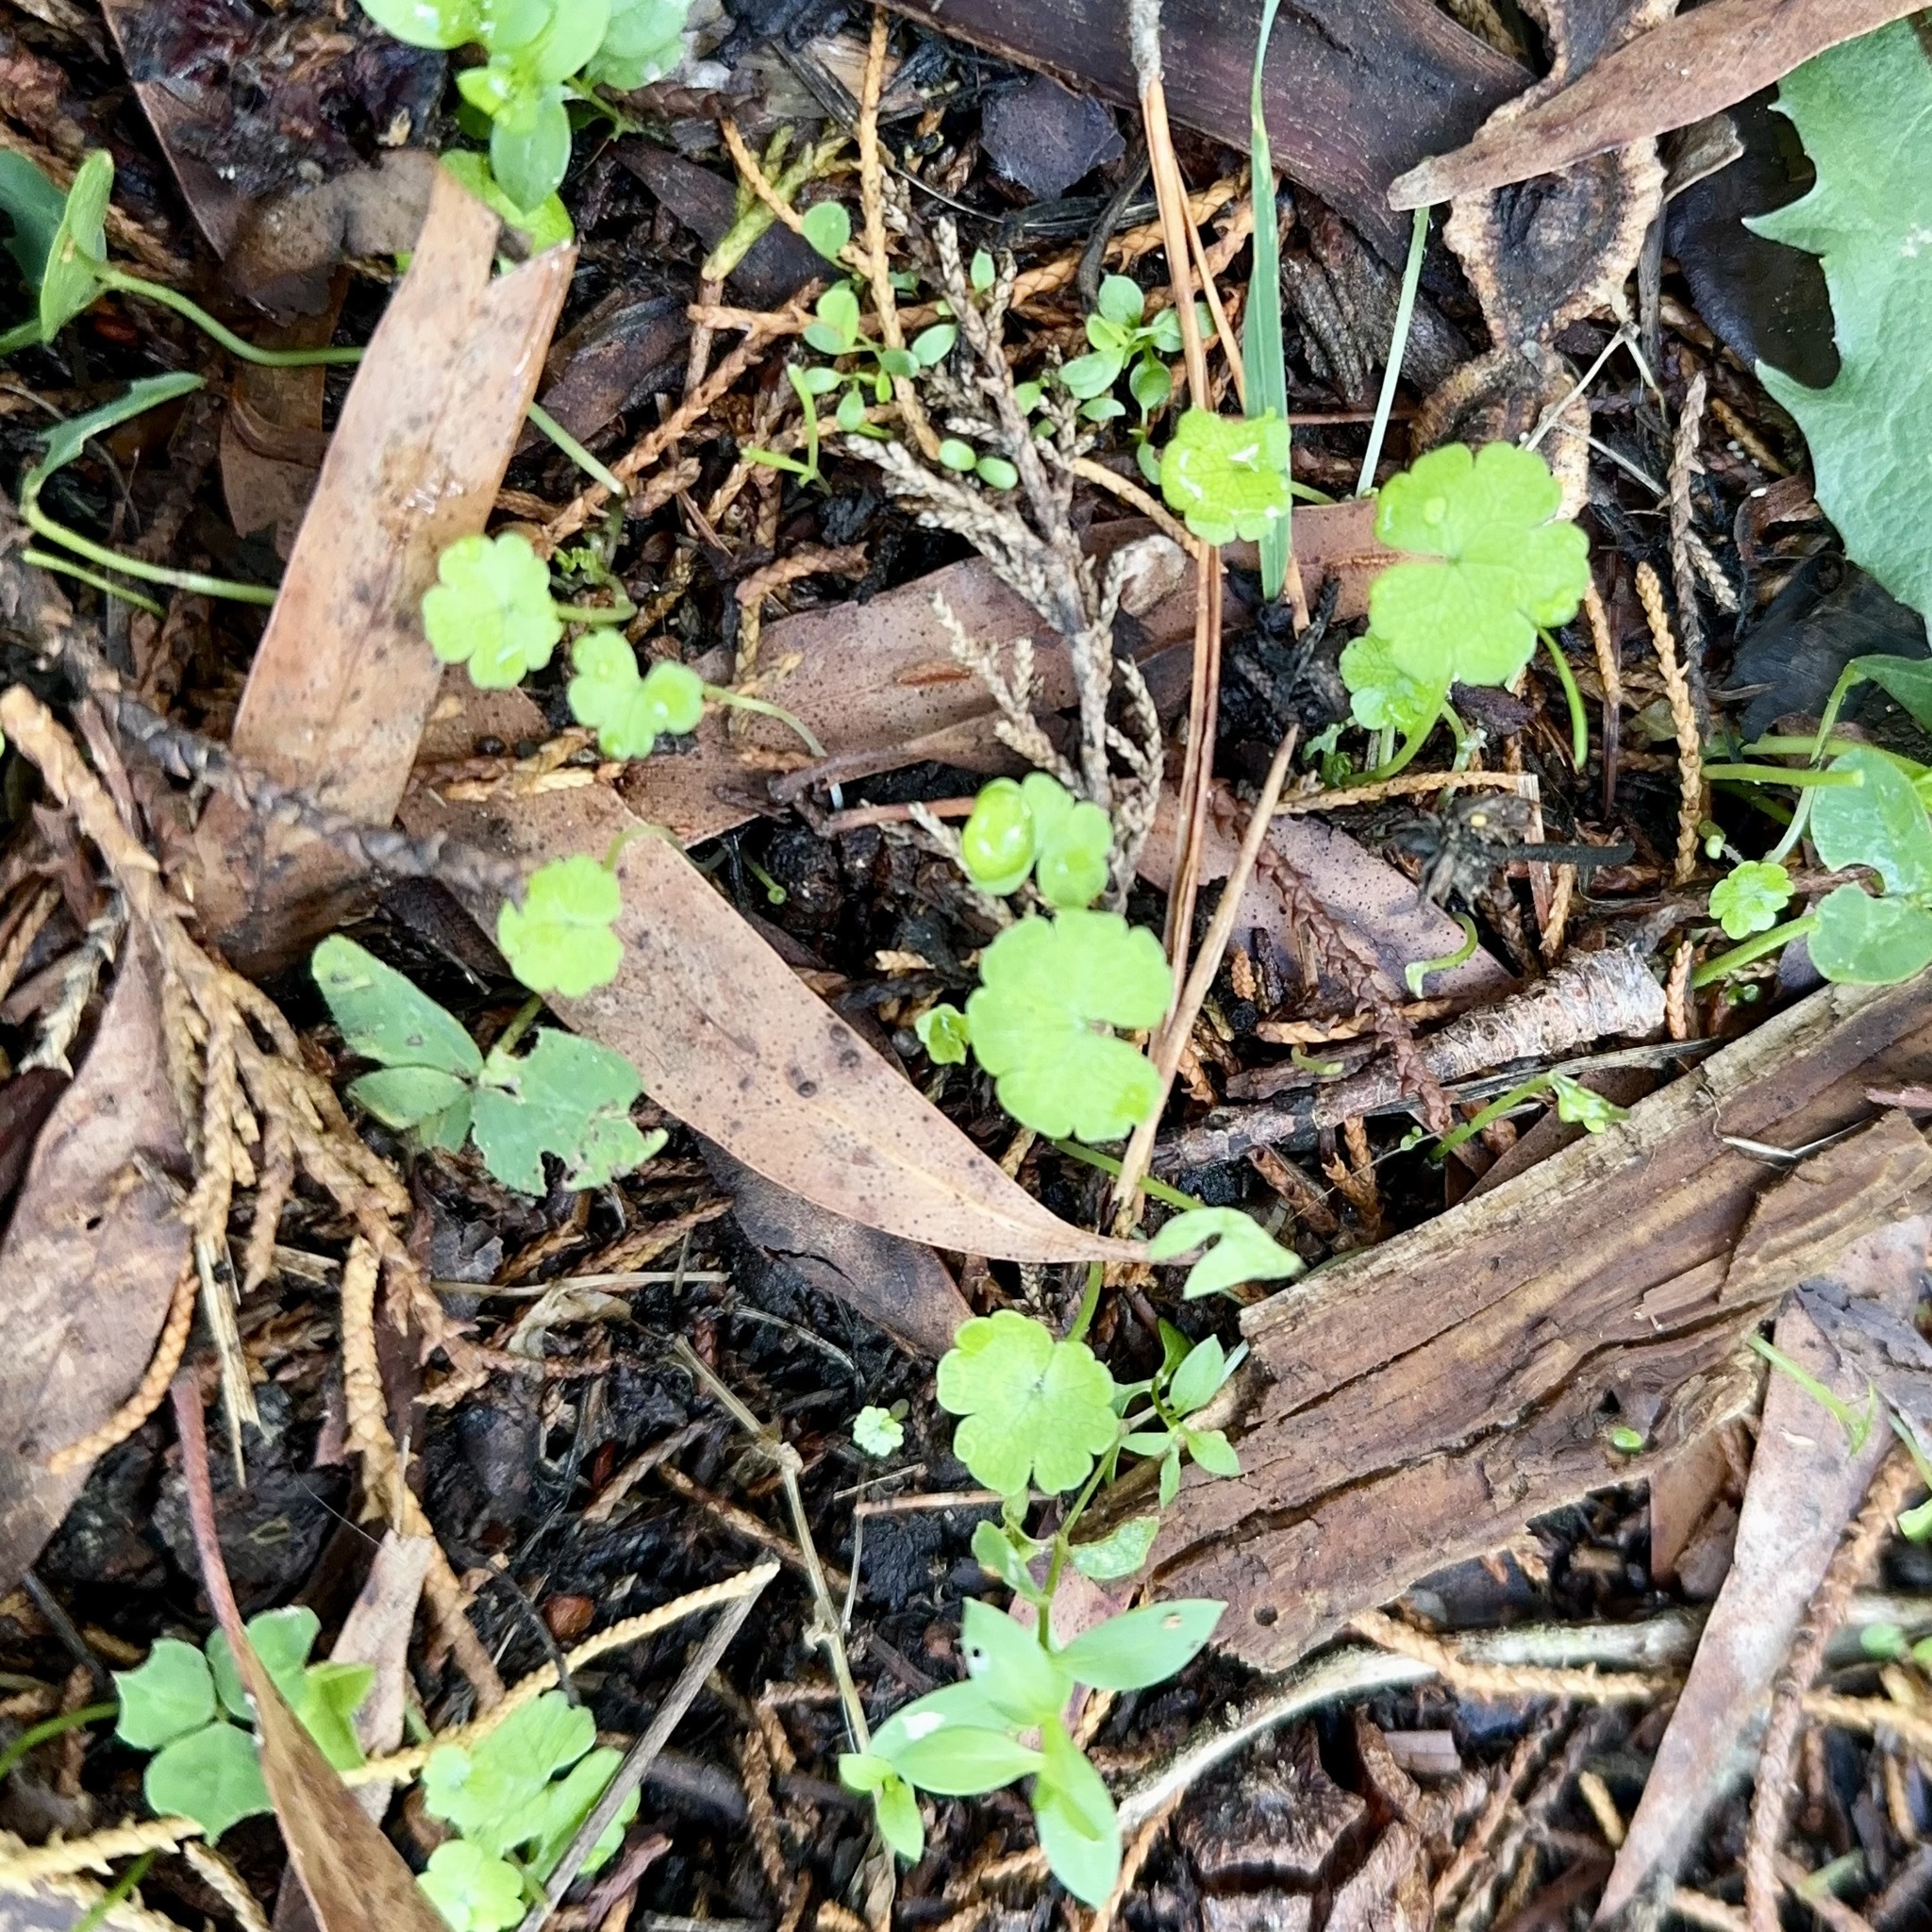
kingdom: Plantae
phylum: Tracheophyta
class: Magnoliopsida
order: Apiales
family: Araliaceae
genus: Hydrocotyle
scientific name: Hydrocotyle heteromeria
